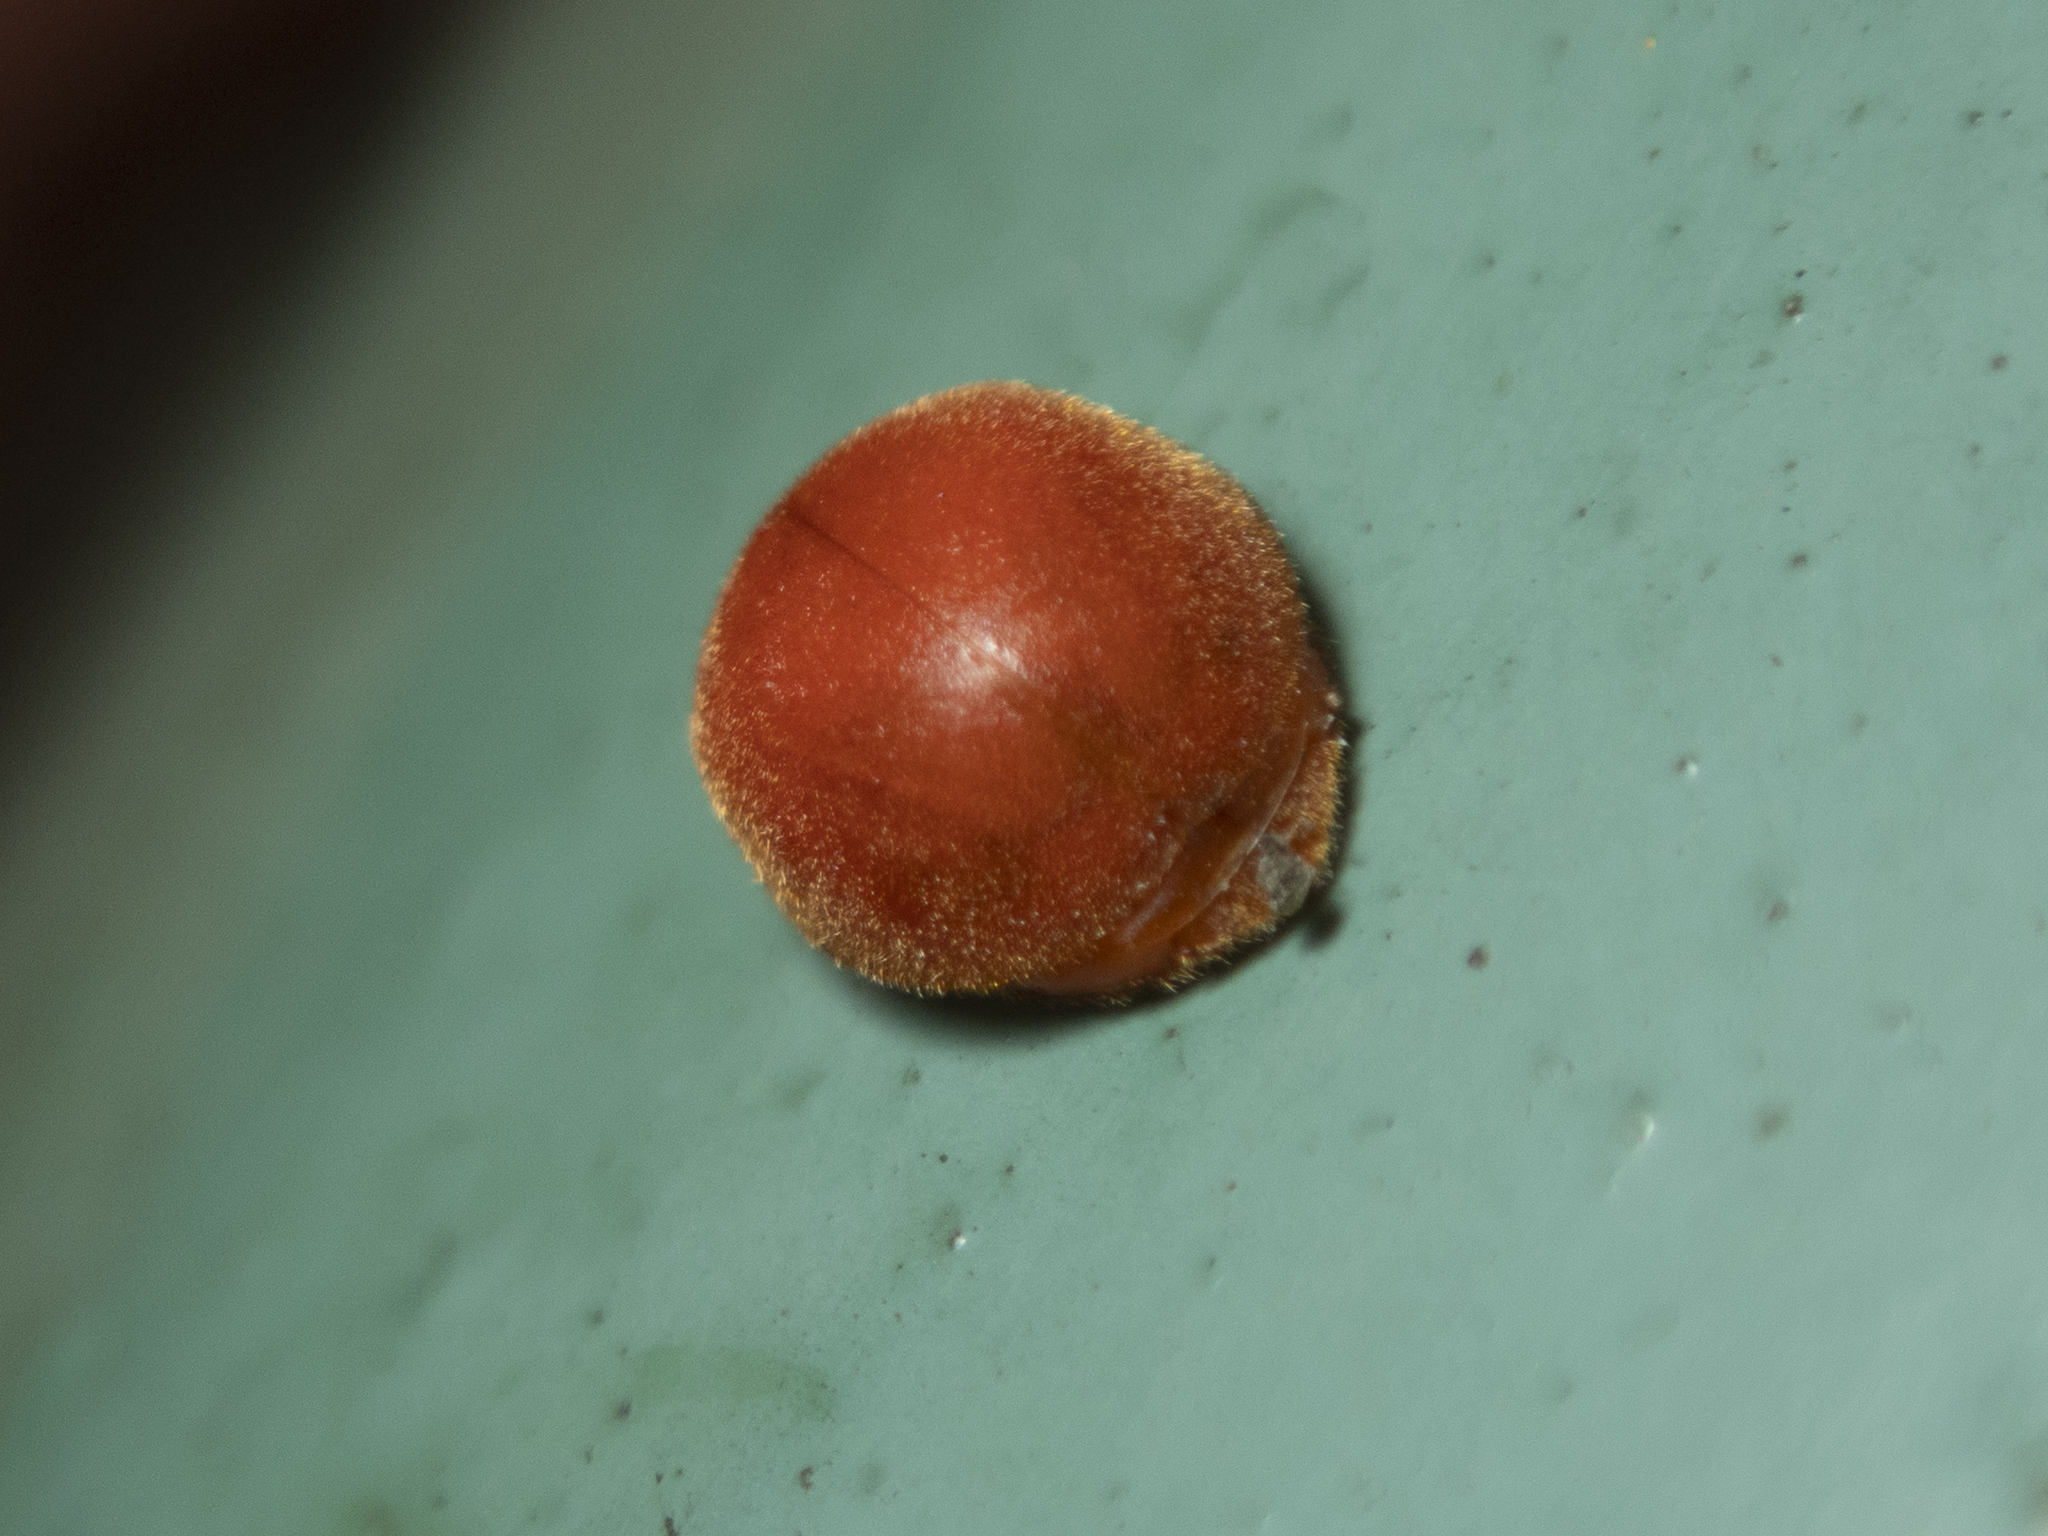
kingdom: Animalia
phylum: Arthropoda
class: Insecta
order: Coleoptera
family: Coccinellidae
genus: Novius
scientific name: Novius rufopilosus
